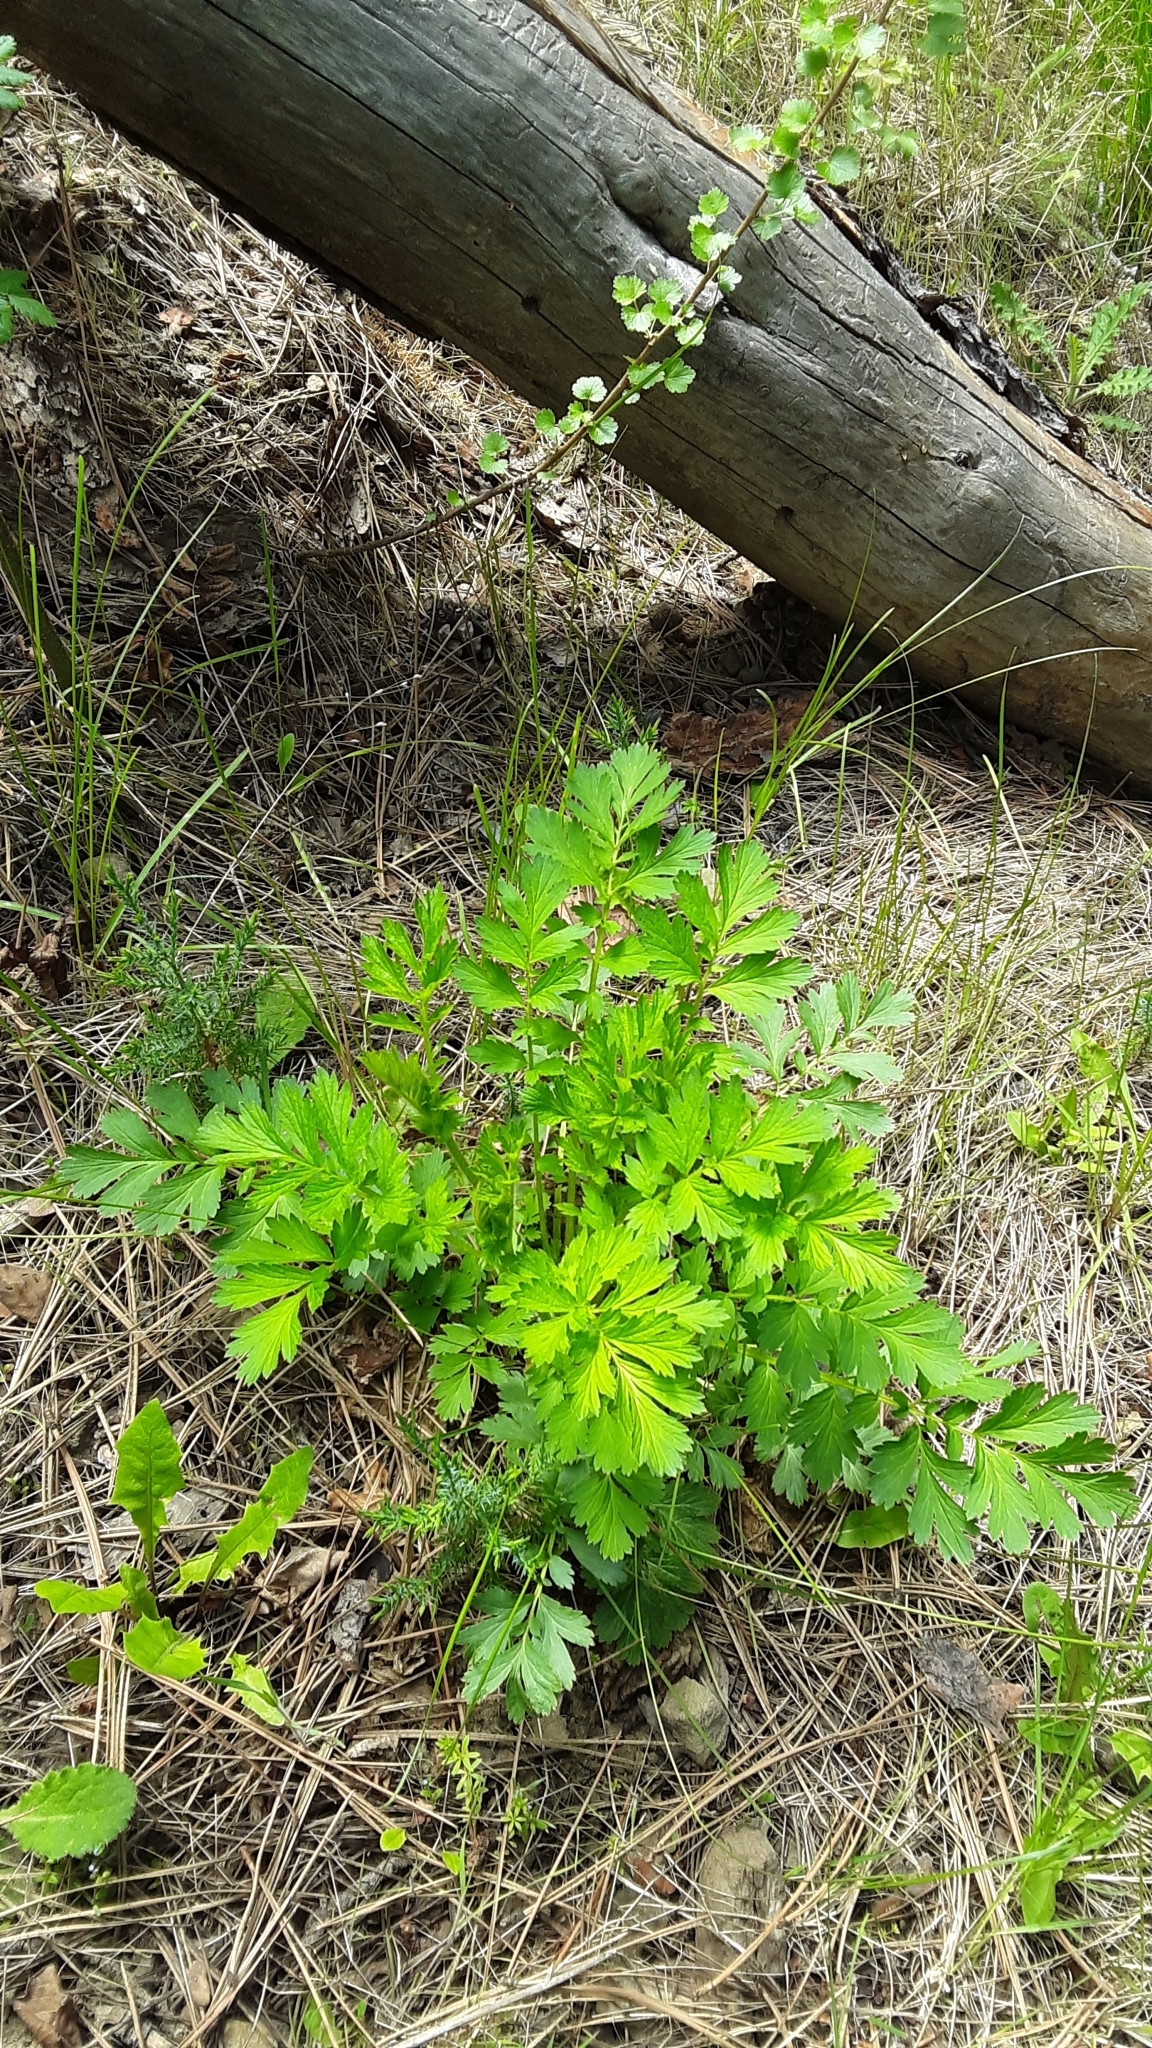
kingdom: Plantae
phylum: Tracheophyta
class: Magnoliopsida
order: Rosales
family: Rosaceae
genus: Geum
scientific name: Geum triflorum
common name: Old man's whiskers
